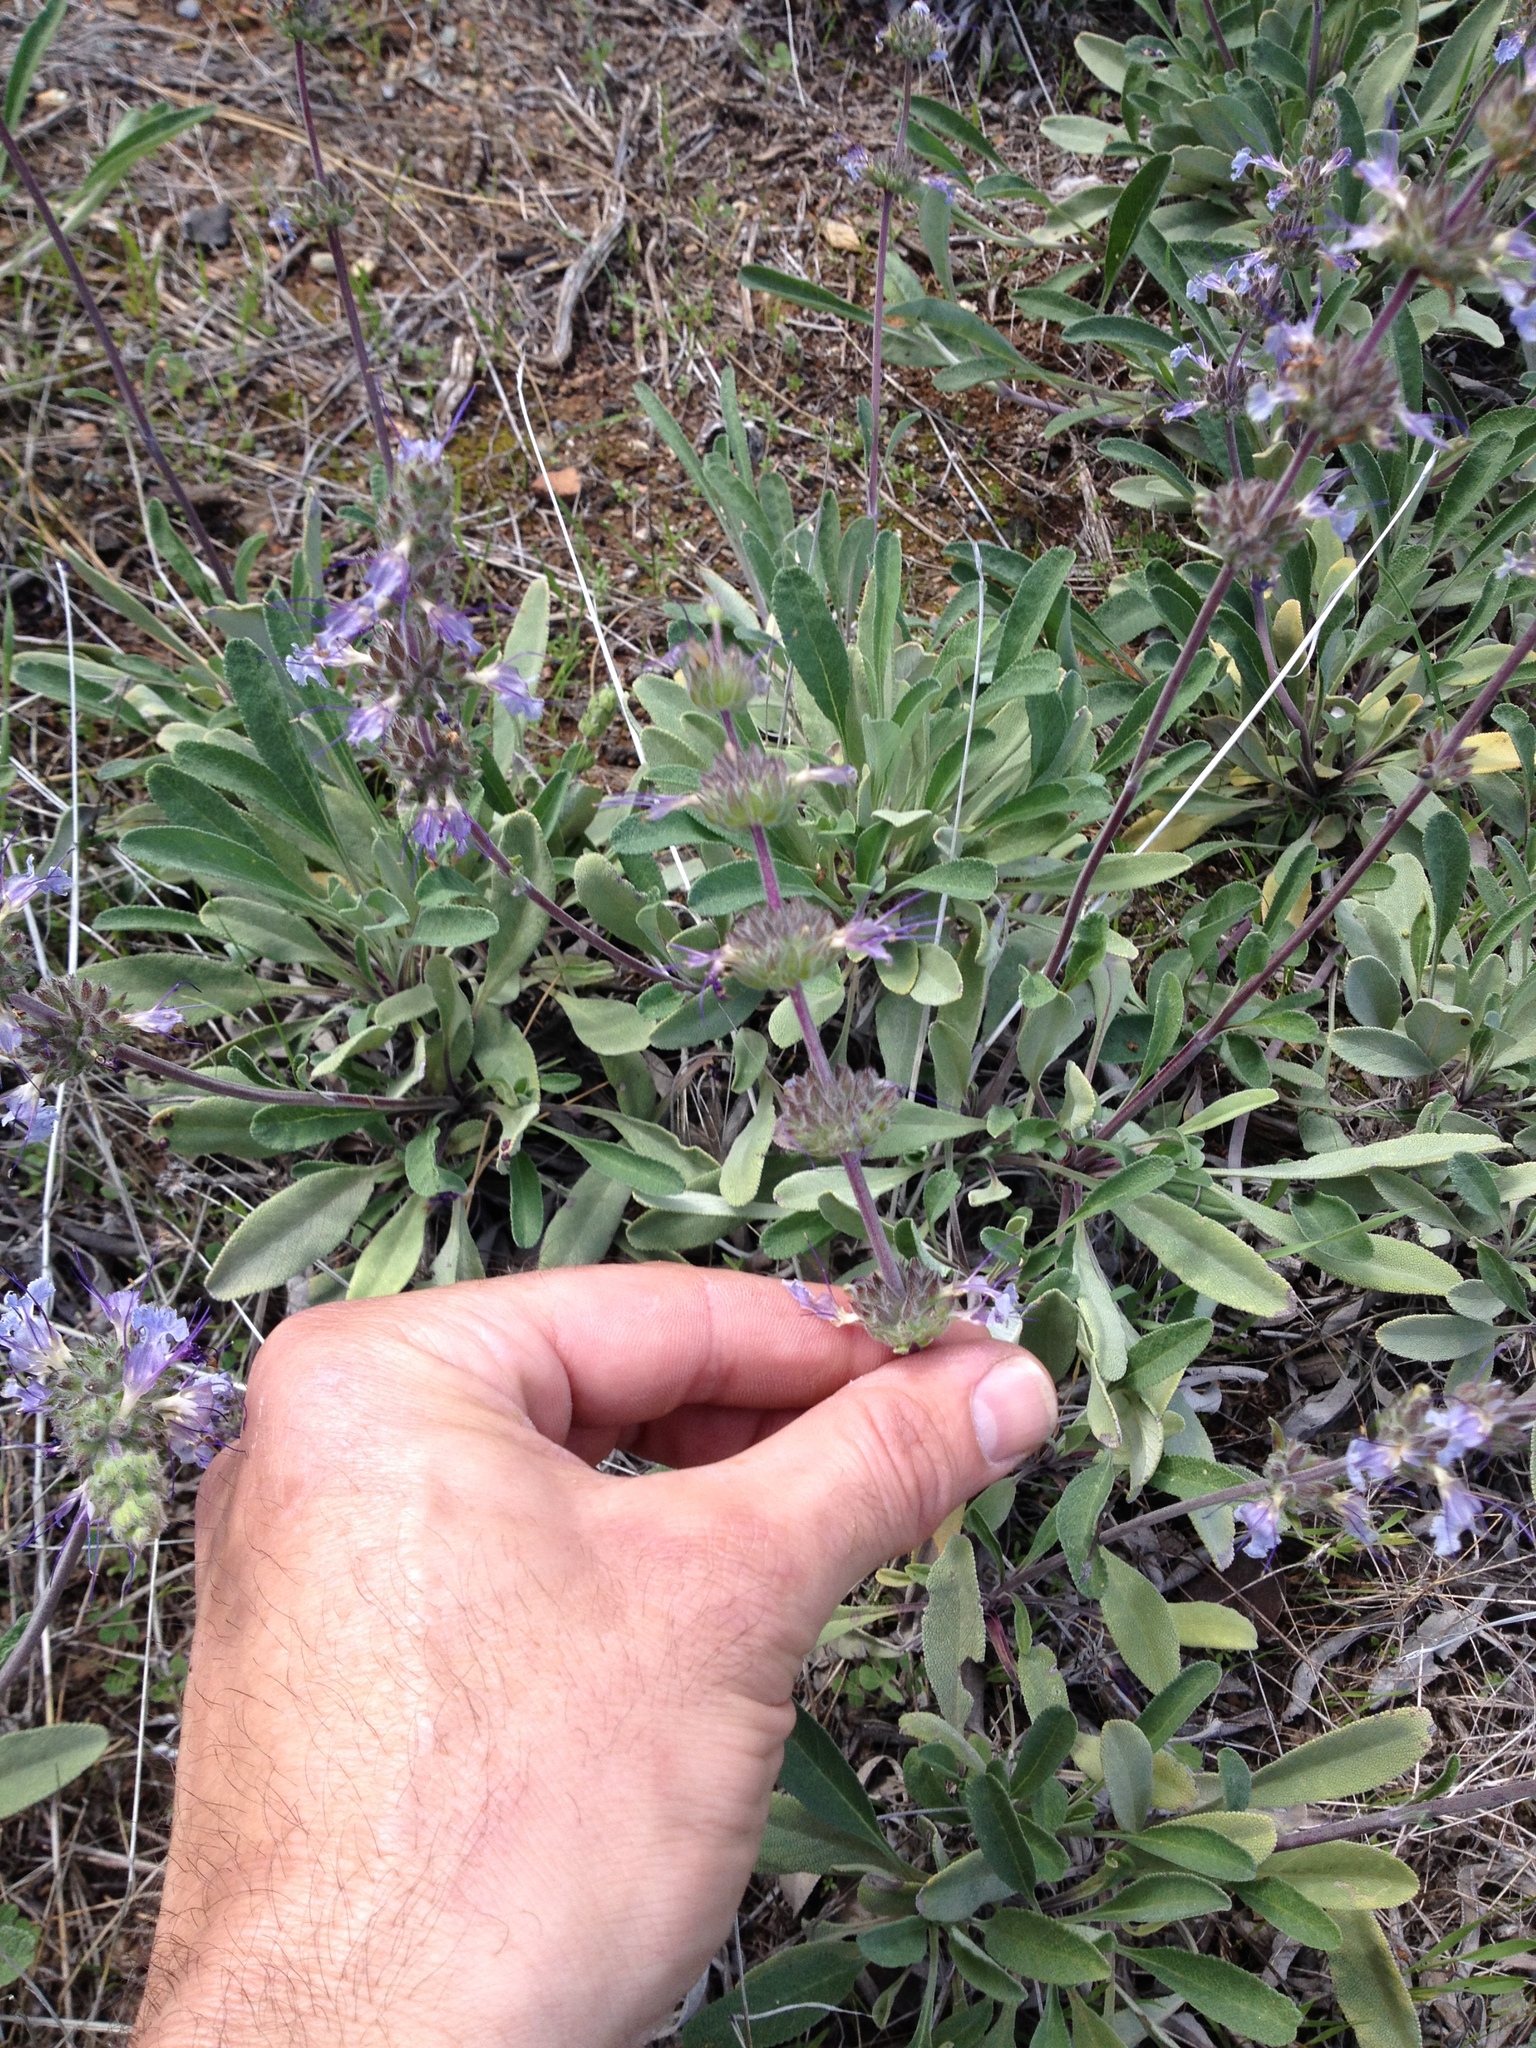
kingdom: Plantae
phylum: Tracheophyta
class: Magnoliopsida
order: Lamiales
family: Lamiaceae
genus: Salvia
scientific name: Salvia sonomensis
